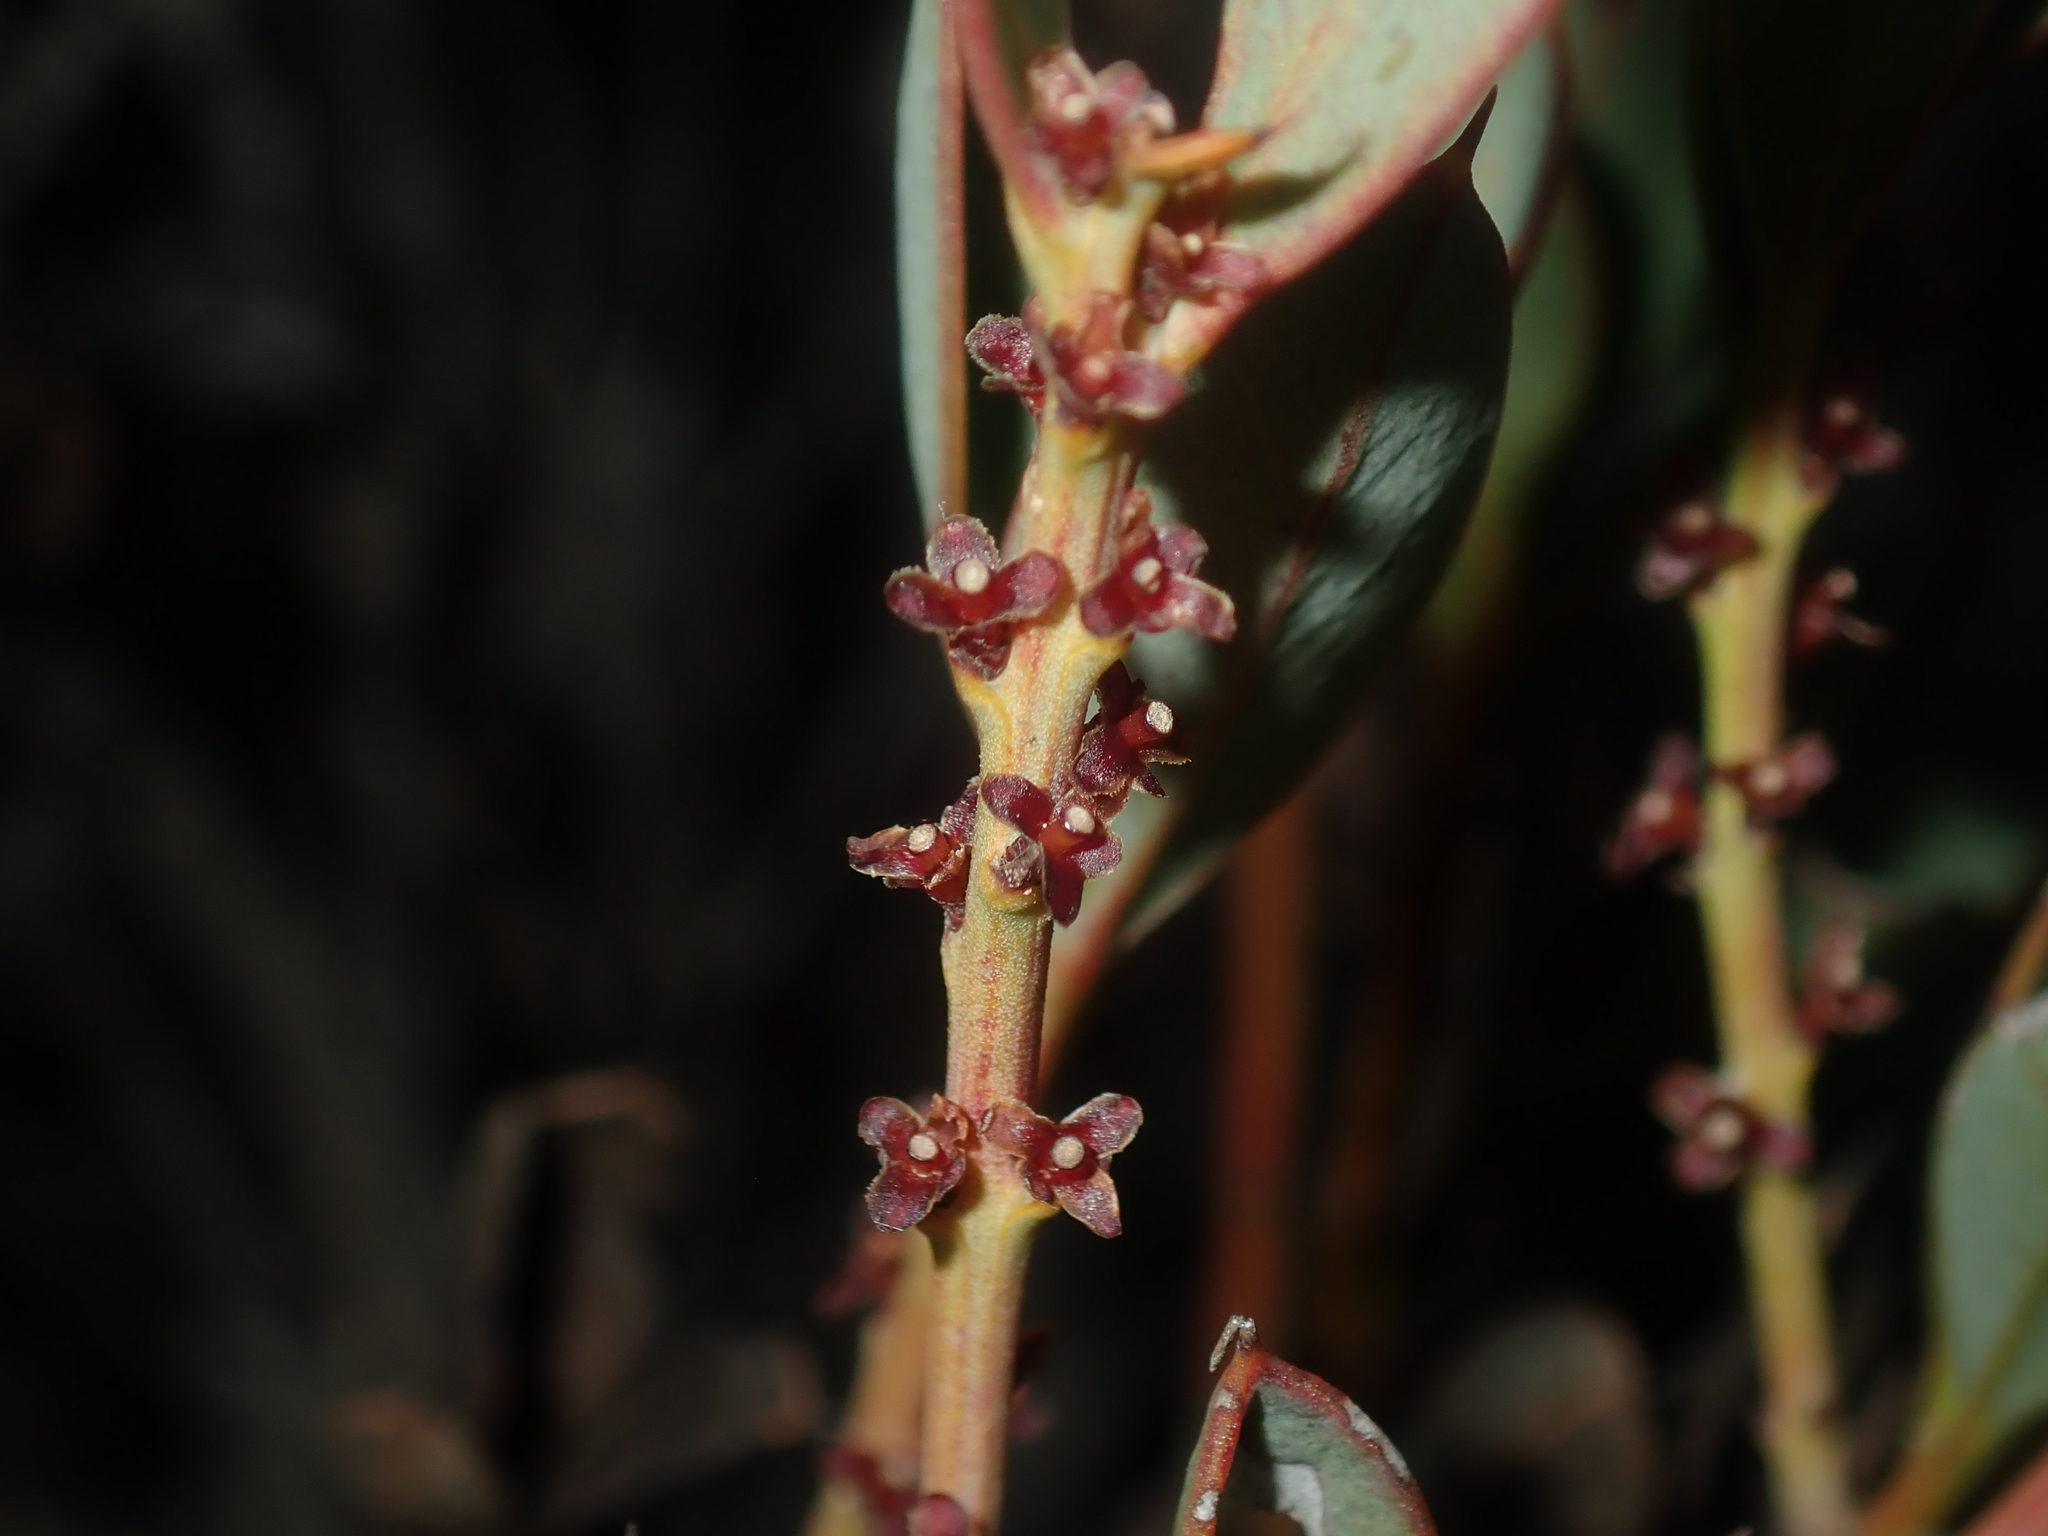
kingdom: Plantae
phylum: Tracheophyta
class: Magnoliopsida
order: Fabales
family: Fabaceae
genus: Daviesia
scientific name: Daviesia nudiflora
